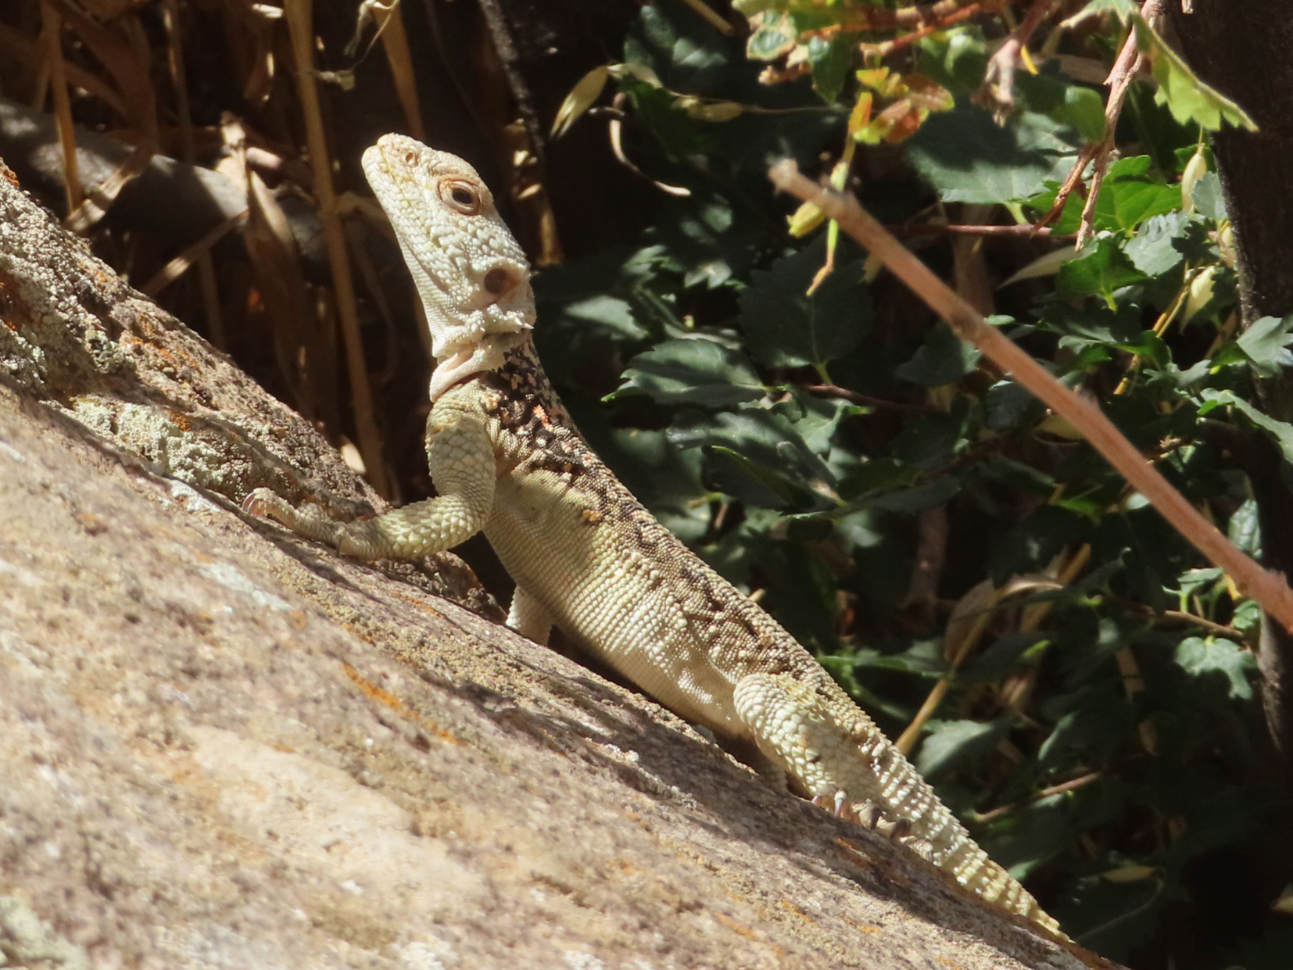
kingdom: Animalia
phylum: Chordata
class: Squamata
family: Agamidae
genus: Paralaudakia
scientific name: Paralaudakia caucasia
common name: Caucasian agama
